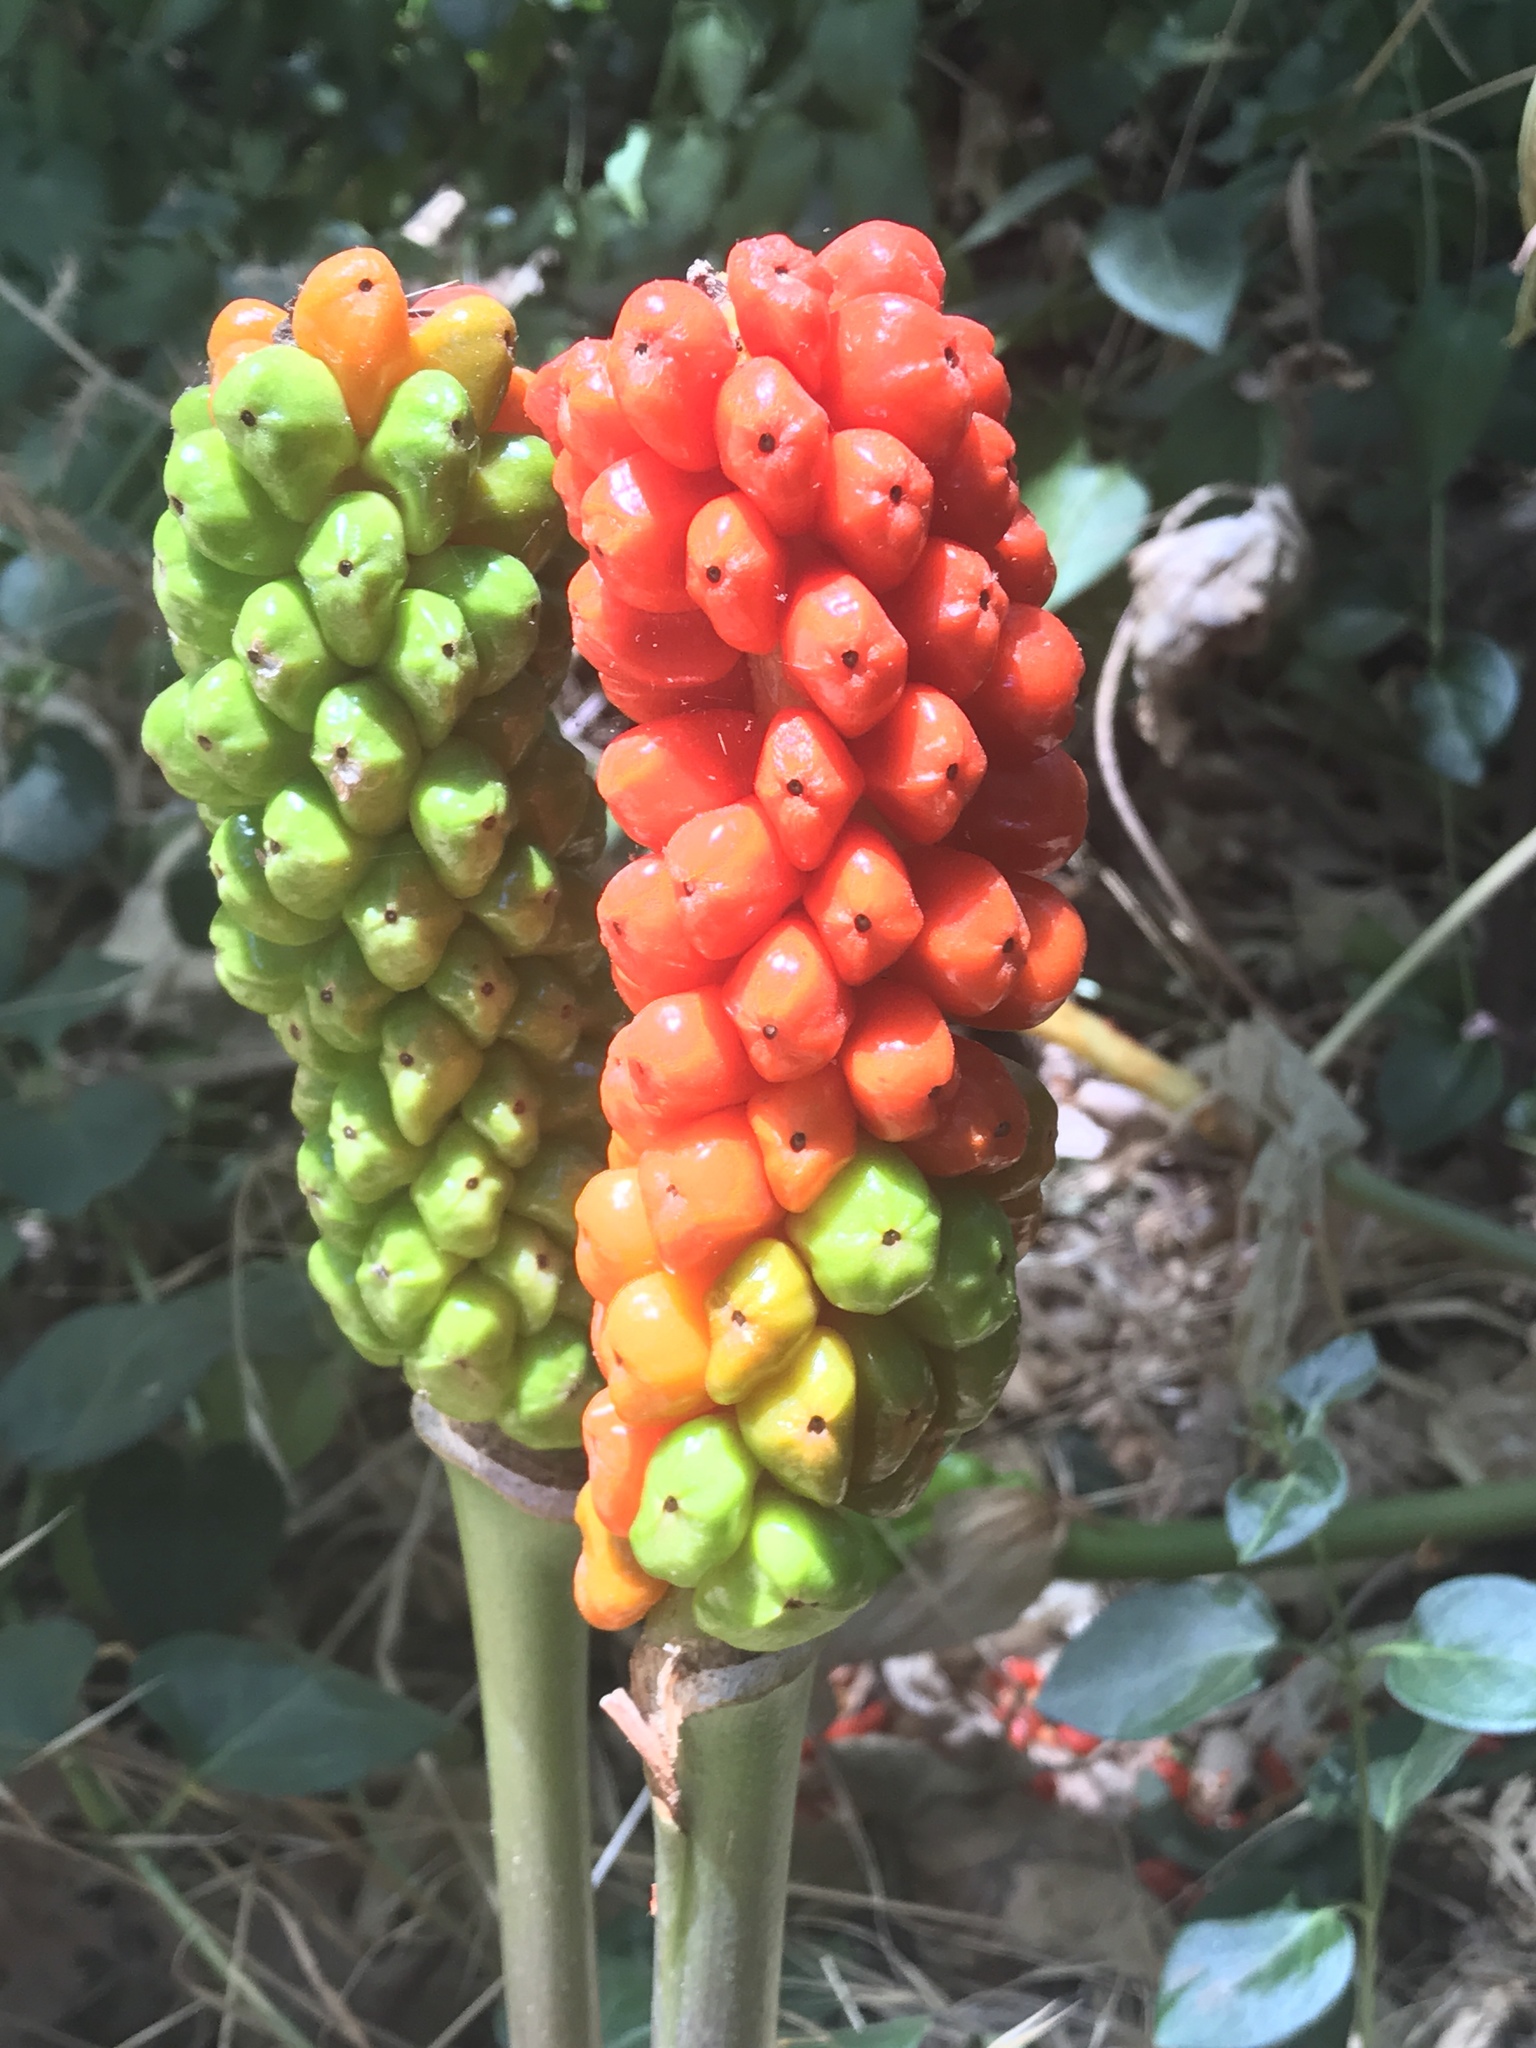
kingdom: Plantae
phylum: Tracheophyta
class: Liliopsida
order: Alismatales
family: Araceae
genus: Arum
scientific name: Arum italicum
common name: Italian lords-and-ladies
